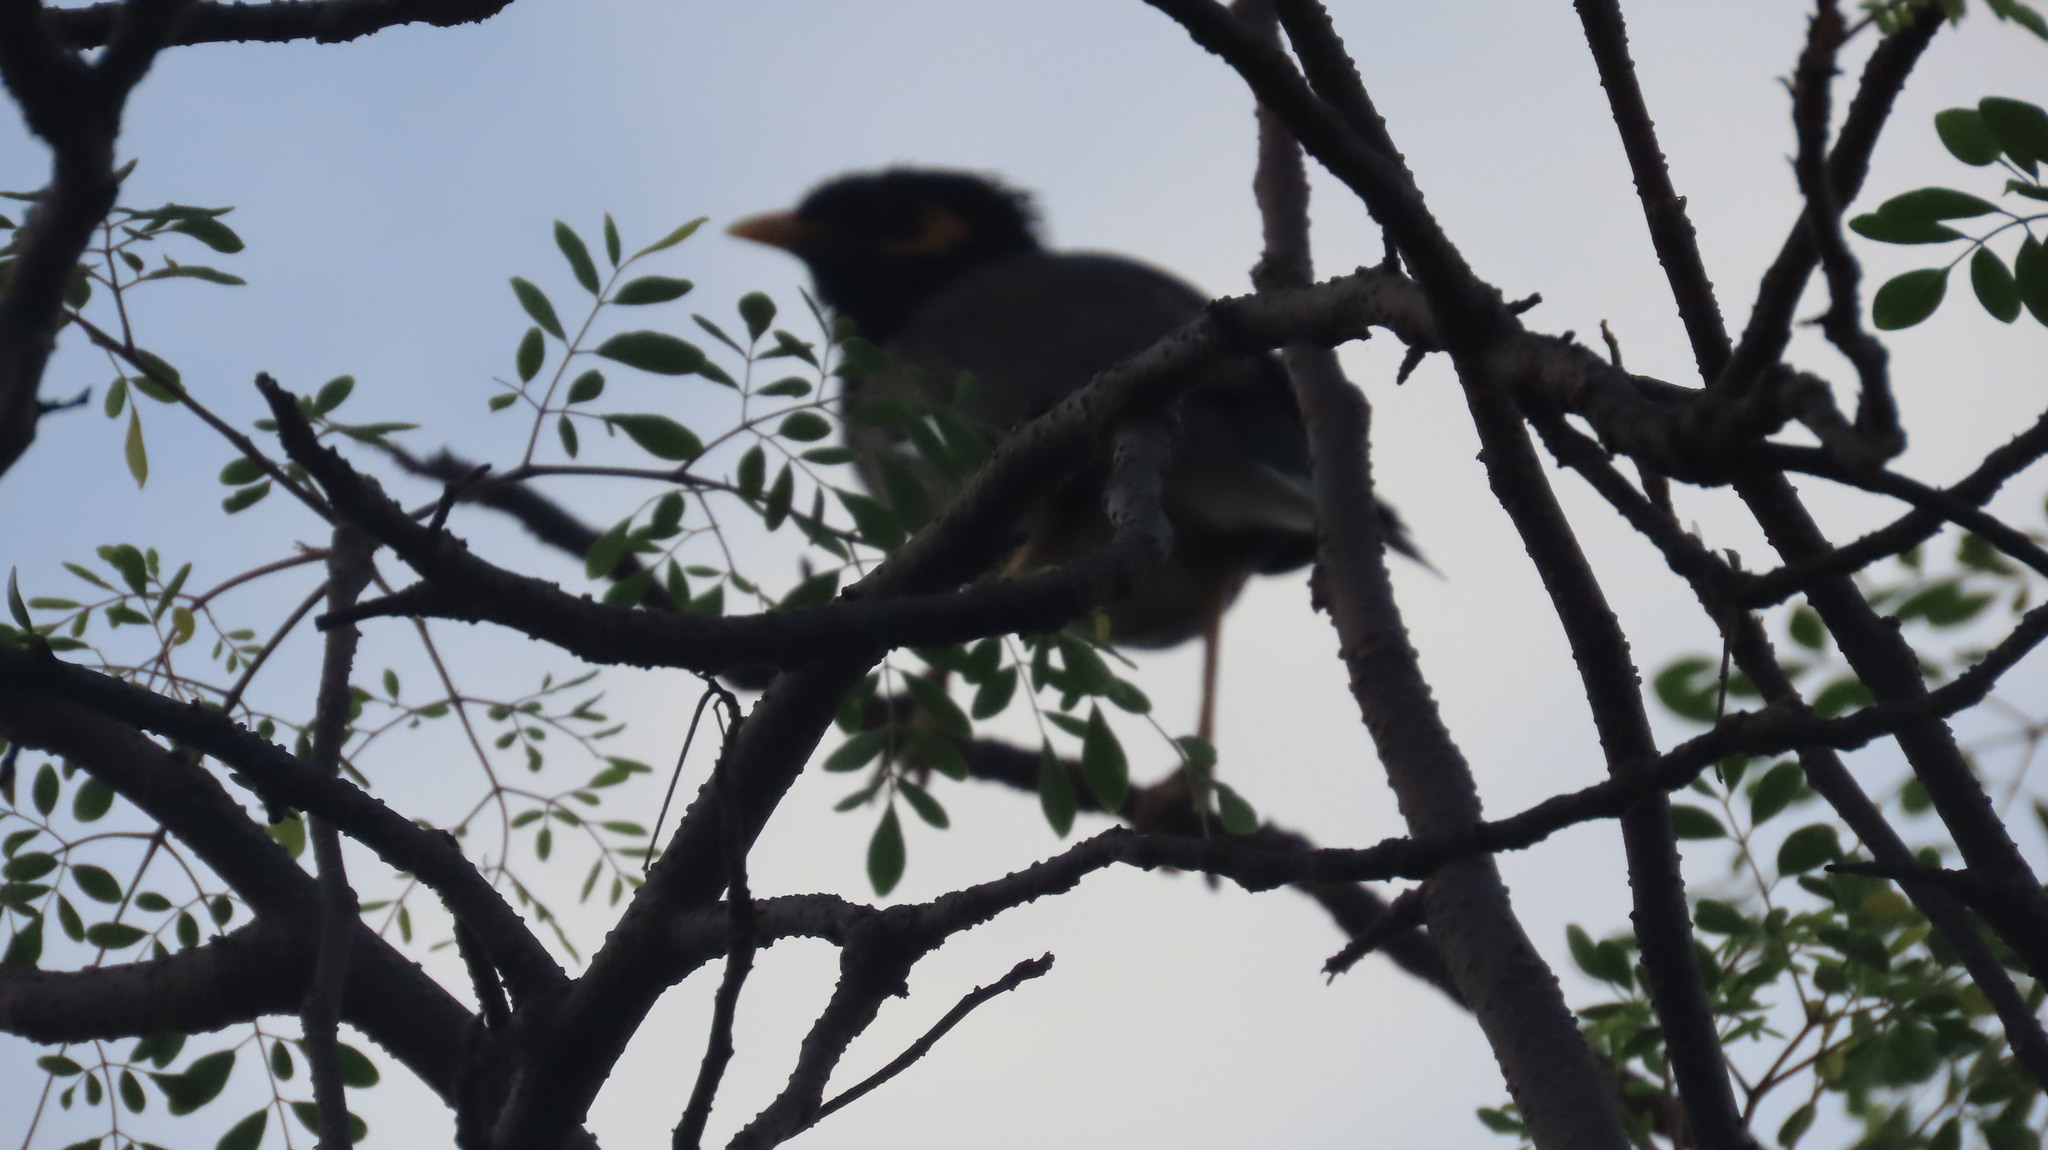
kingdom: Animalia
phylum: Chordata
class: Aves
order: Passeriformes
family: Sturnidae
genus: Acridotheres
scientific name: Acridotheres tristis
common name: Common myna
